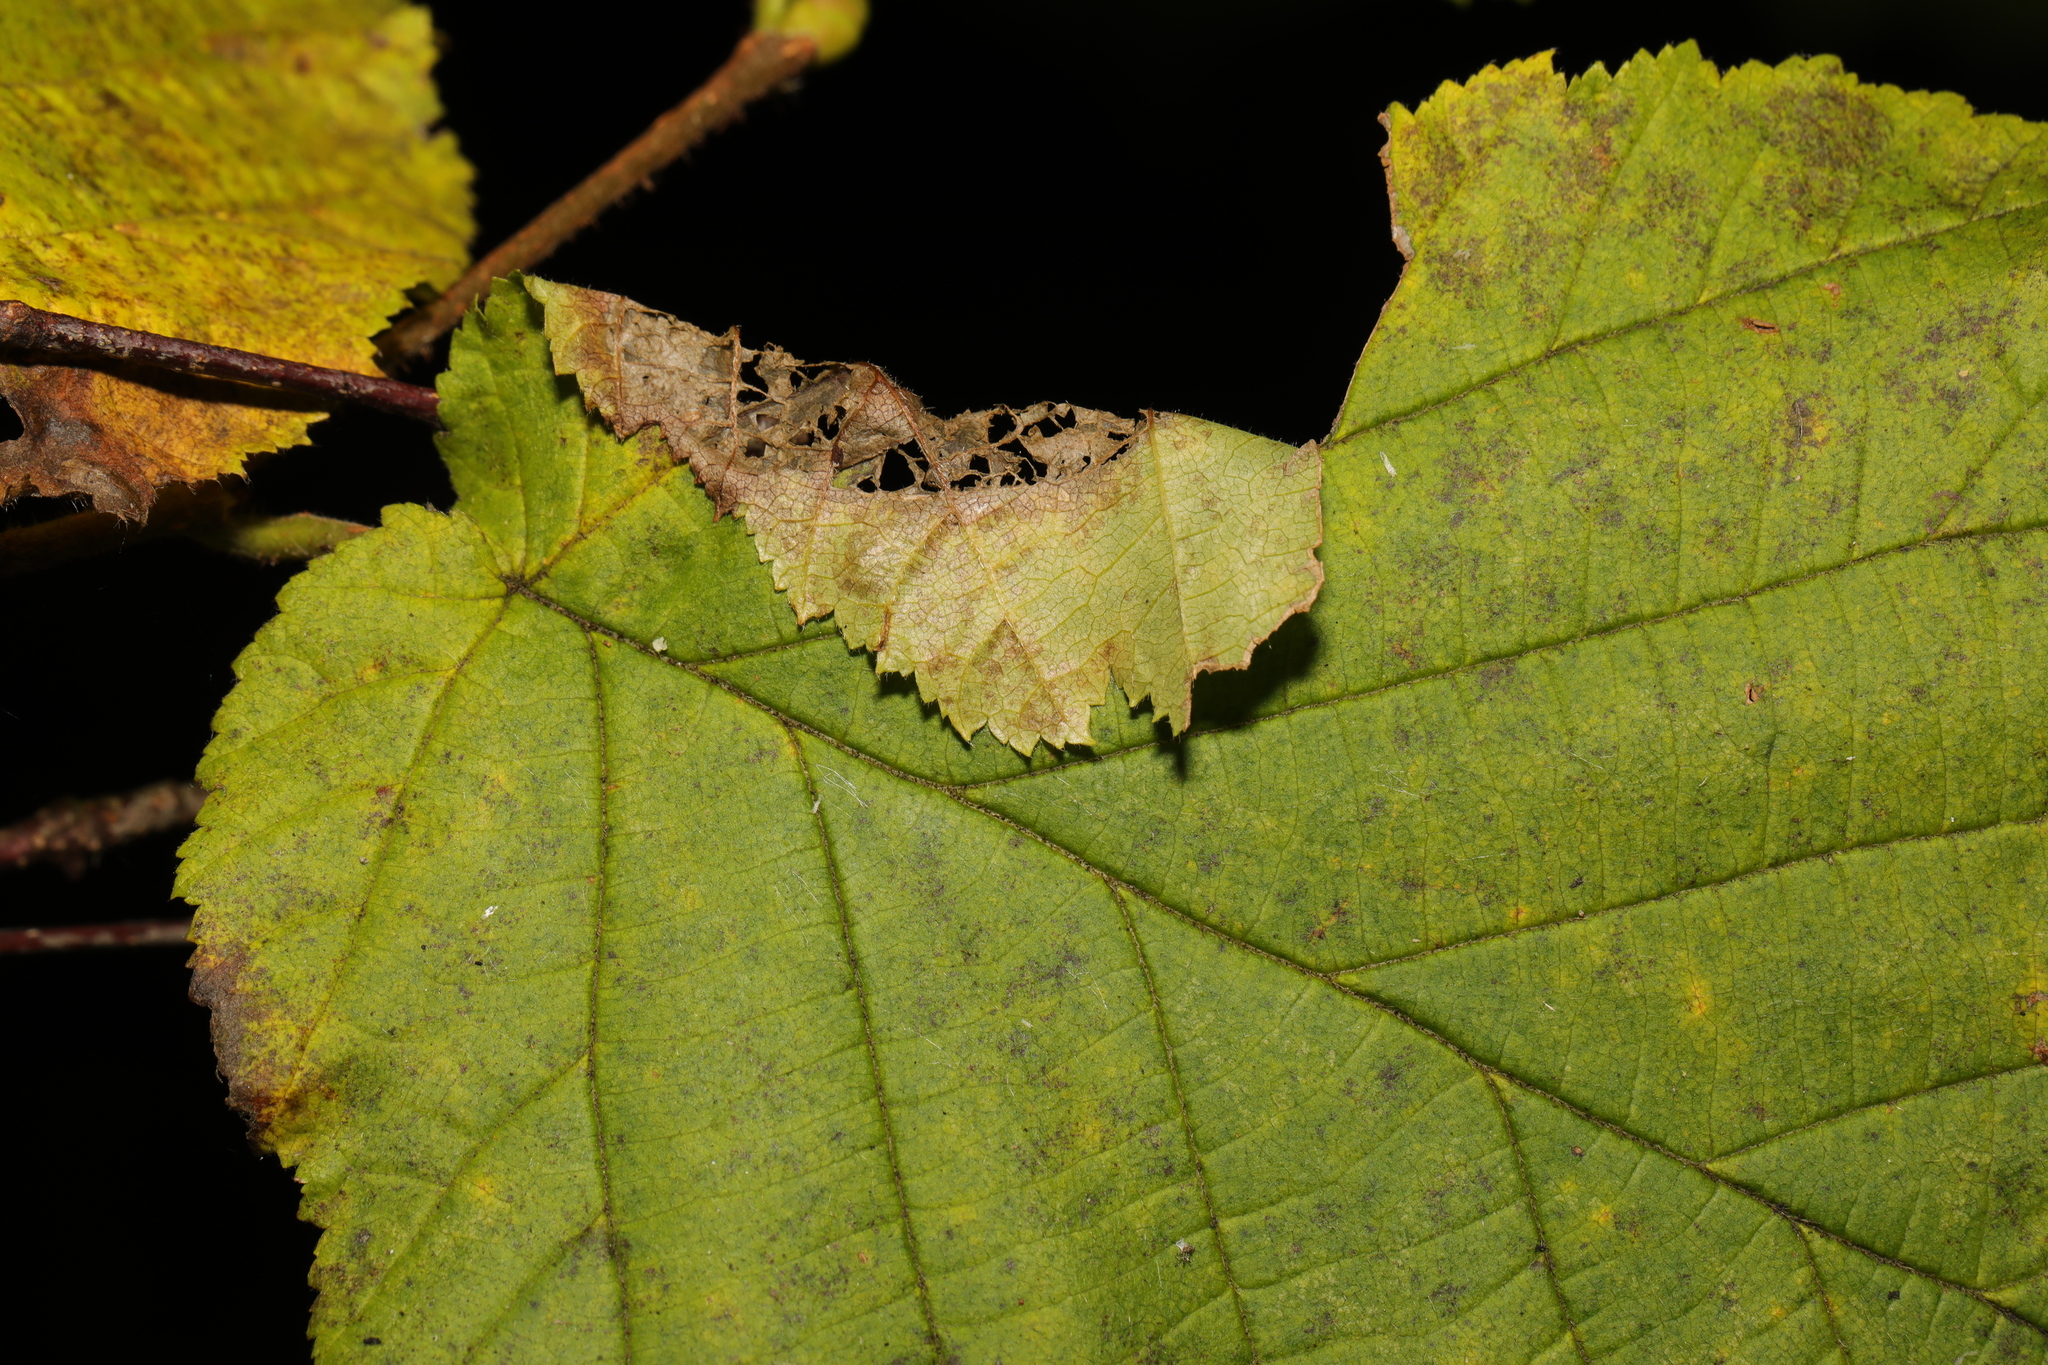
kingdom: Animalia
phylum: Arthropoda
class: Insecta
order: Lepidoptera
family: Gracillariidae
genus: Parornix
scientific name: Parornix devoniella
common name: Hazel slender
